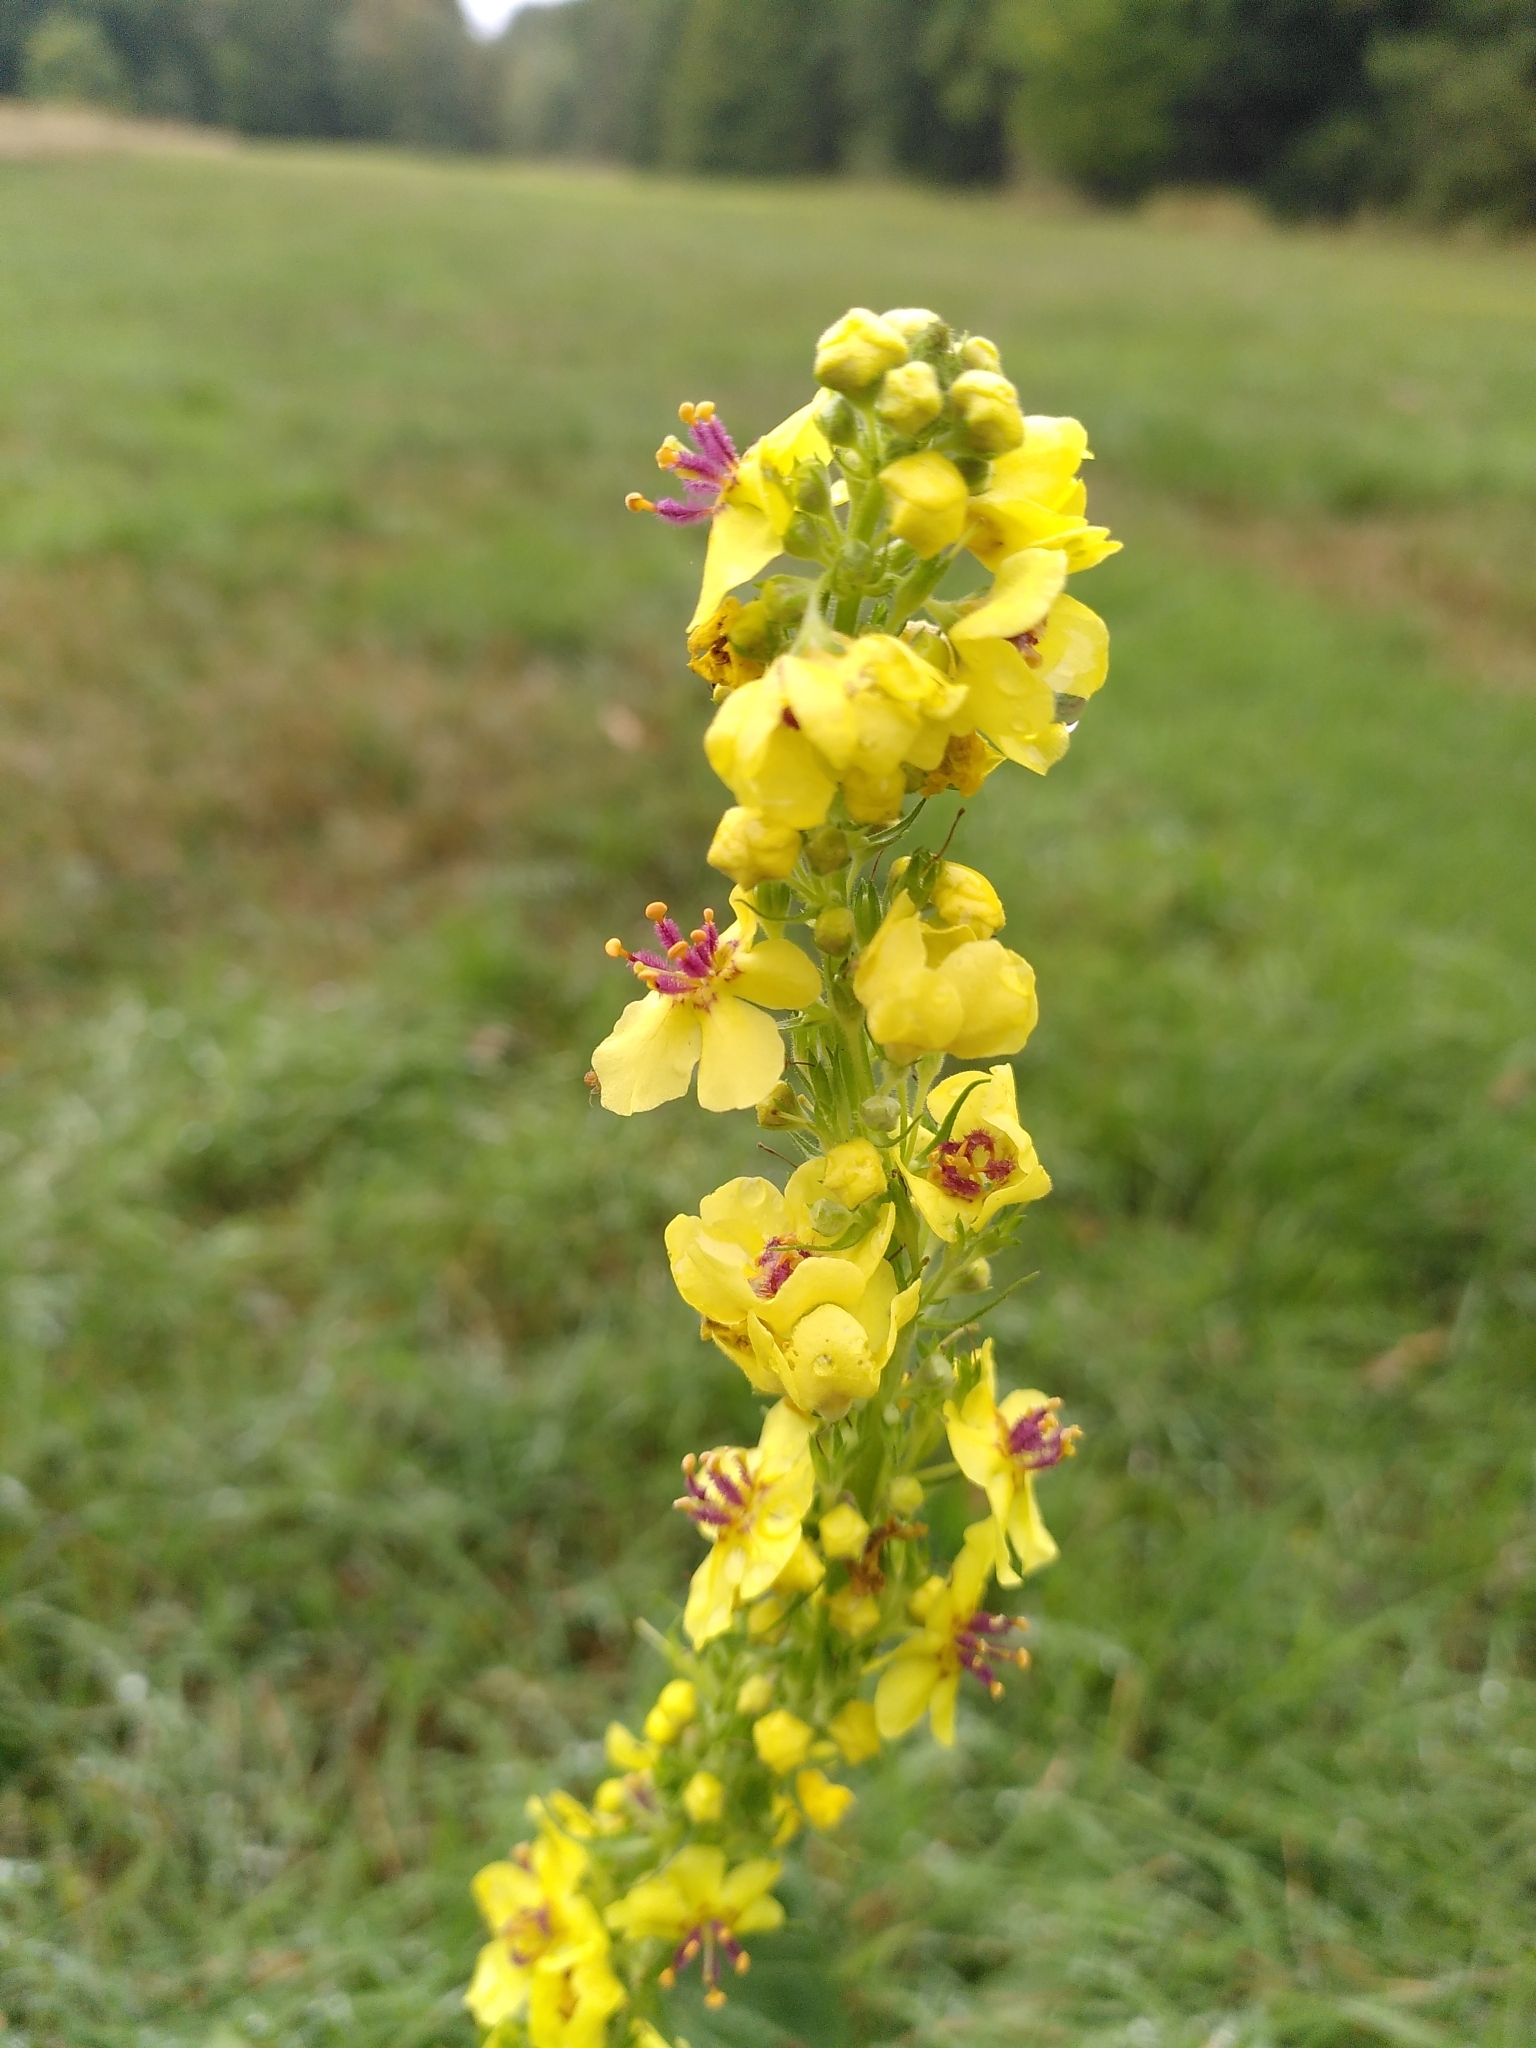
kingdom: Plantae
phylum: Tracheophyta
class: Magnoliopsida
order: Lamiales
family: Scrophulariaceae
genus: Verbascum
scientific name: Verbascum nigrum
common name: Dark mullein
